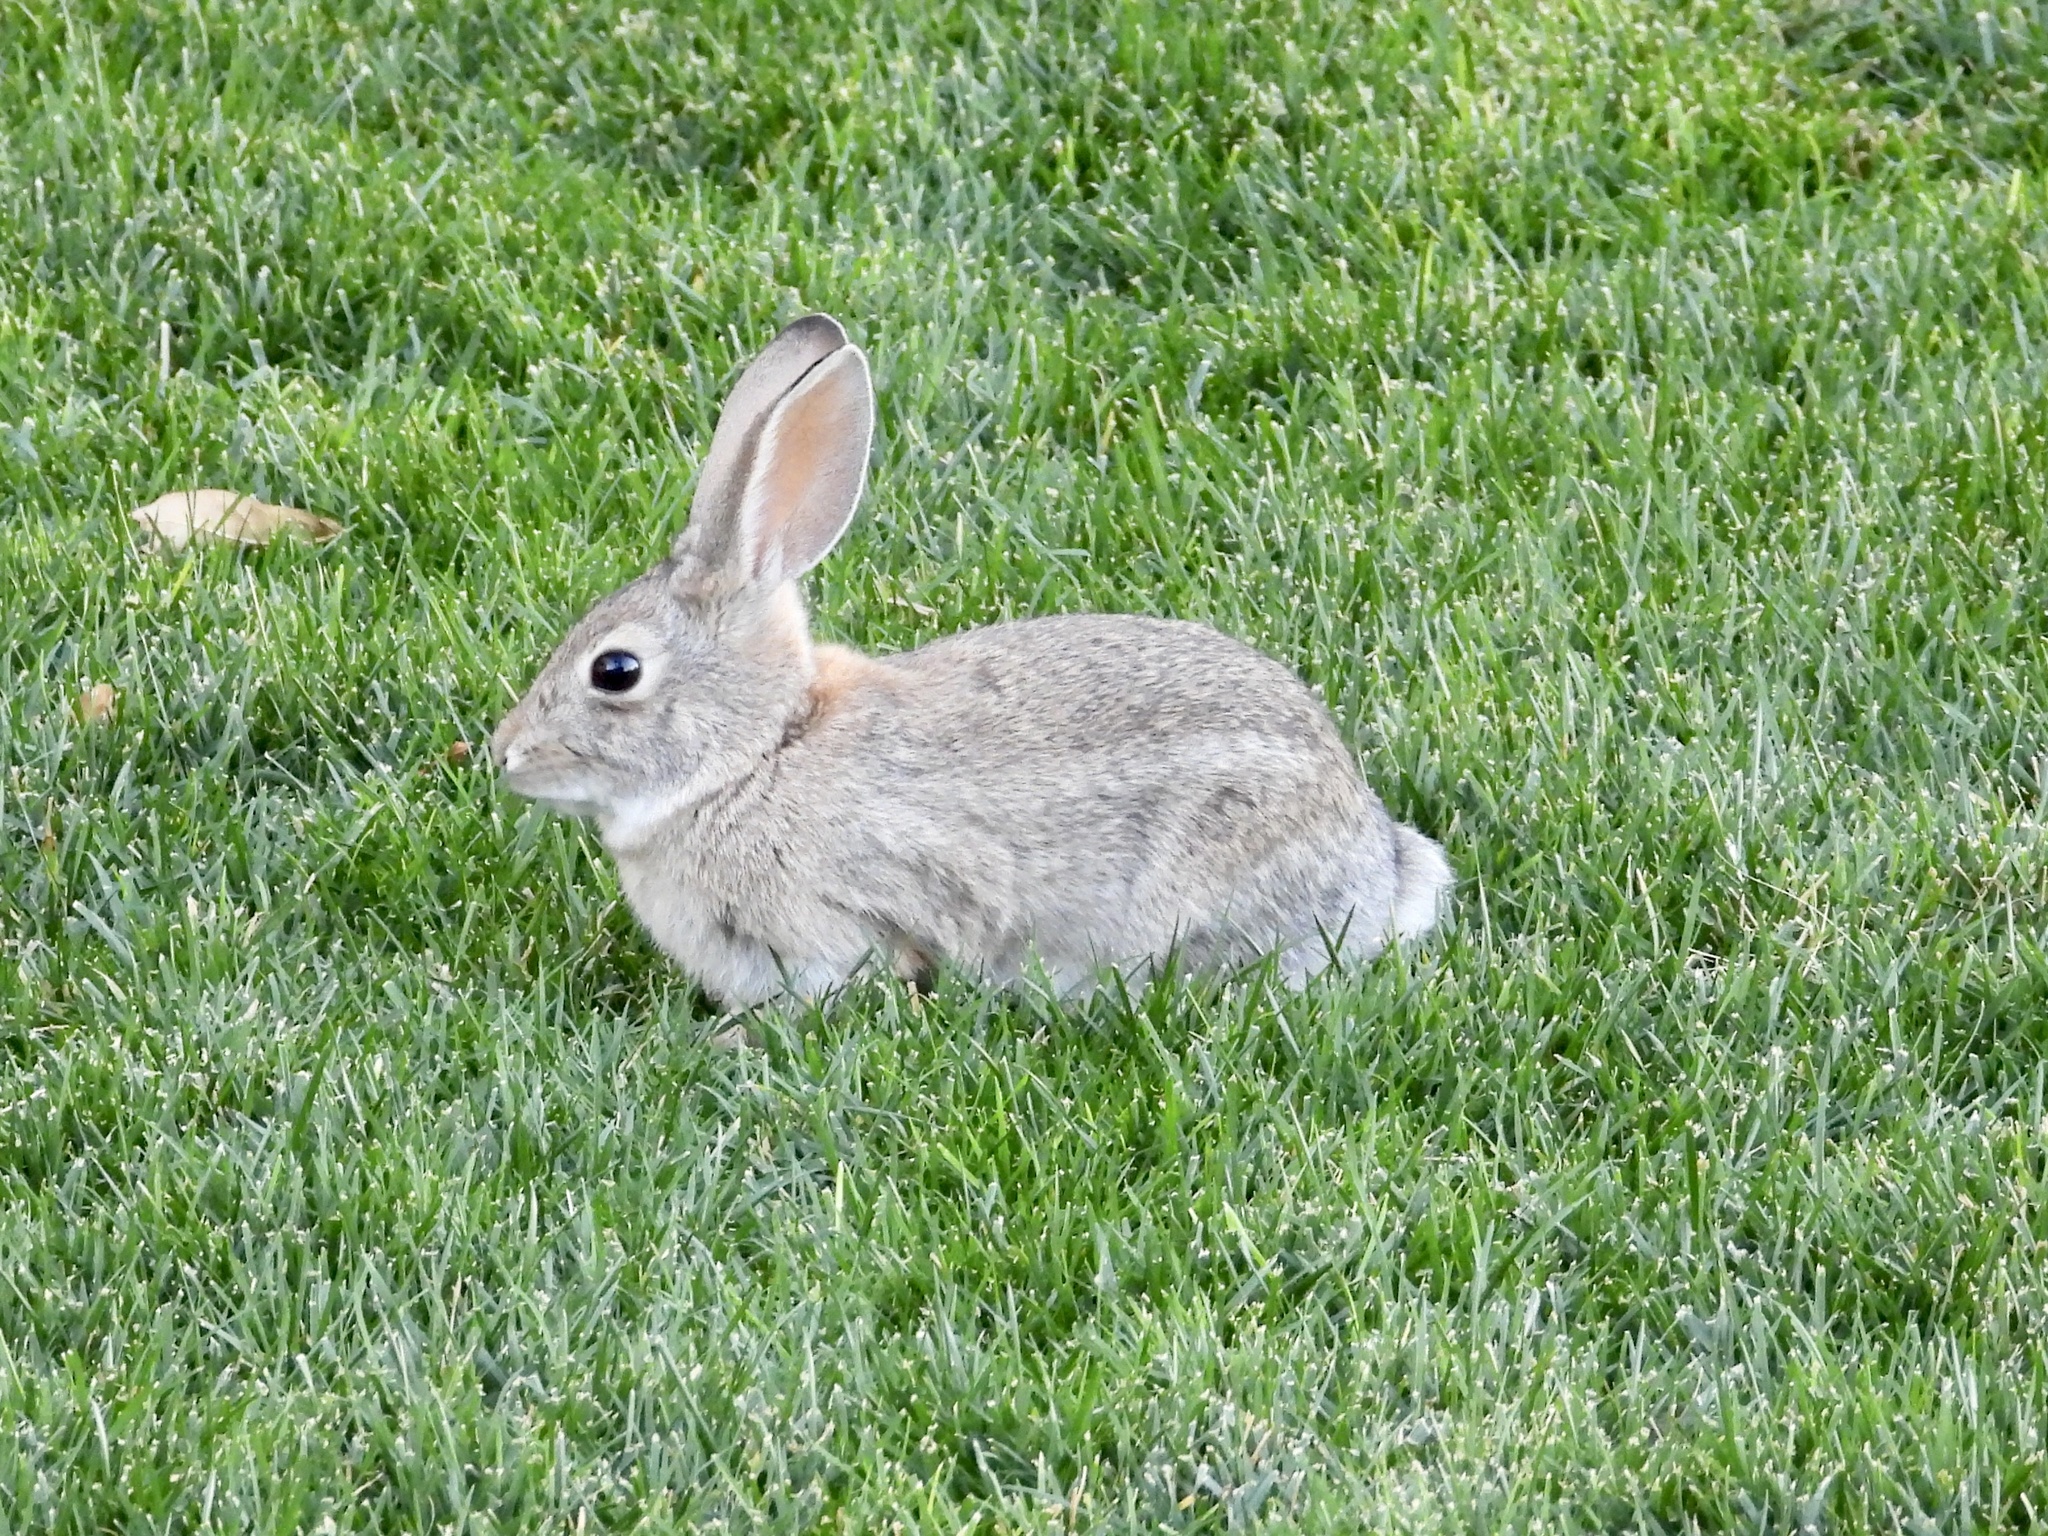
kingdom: Animalia
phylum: Chordata
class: Mammalia
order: Lagomorpha
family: Leporidae
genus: Sylvilagus
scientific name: Sylvilagus audubonii
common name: Desert cottontail
